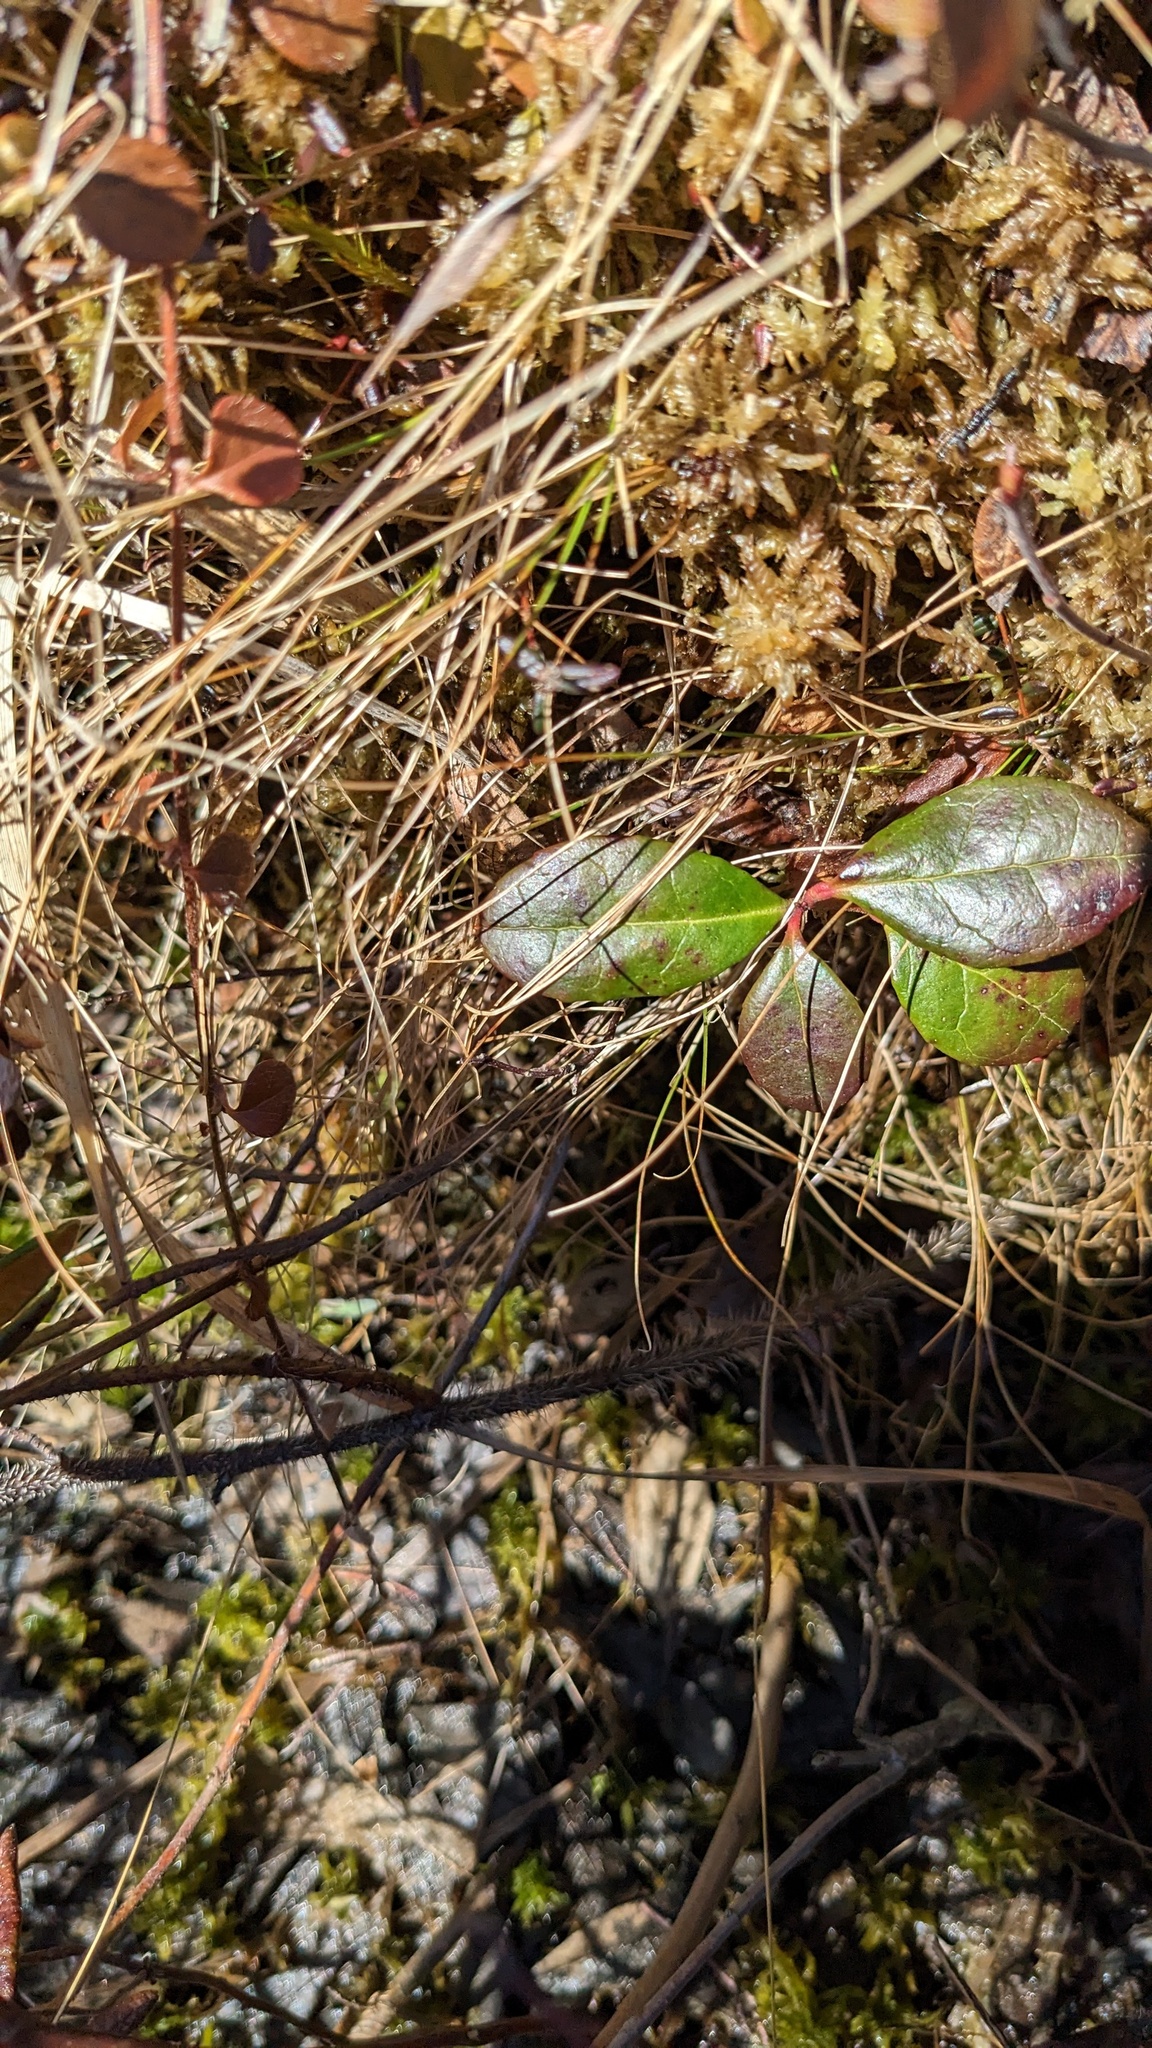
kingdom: Plantae
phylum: Tracheophyta
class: Magnoliopsida
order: Ericales
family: Ericaceae
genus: Gaultheria
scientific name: Gaultheria procumbens
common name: Checkerberry
